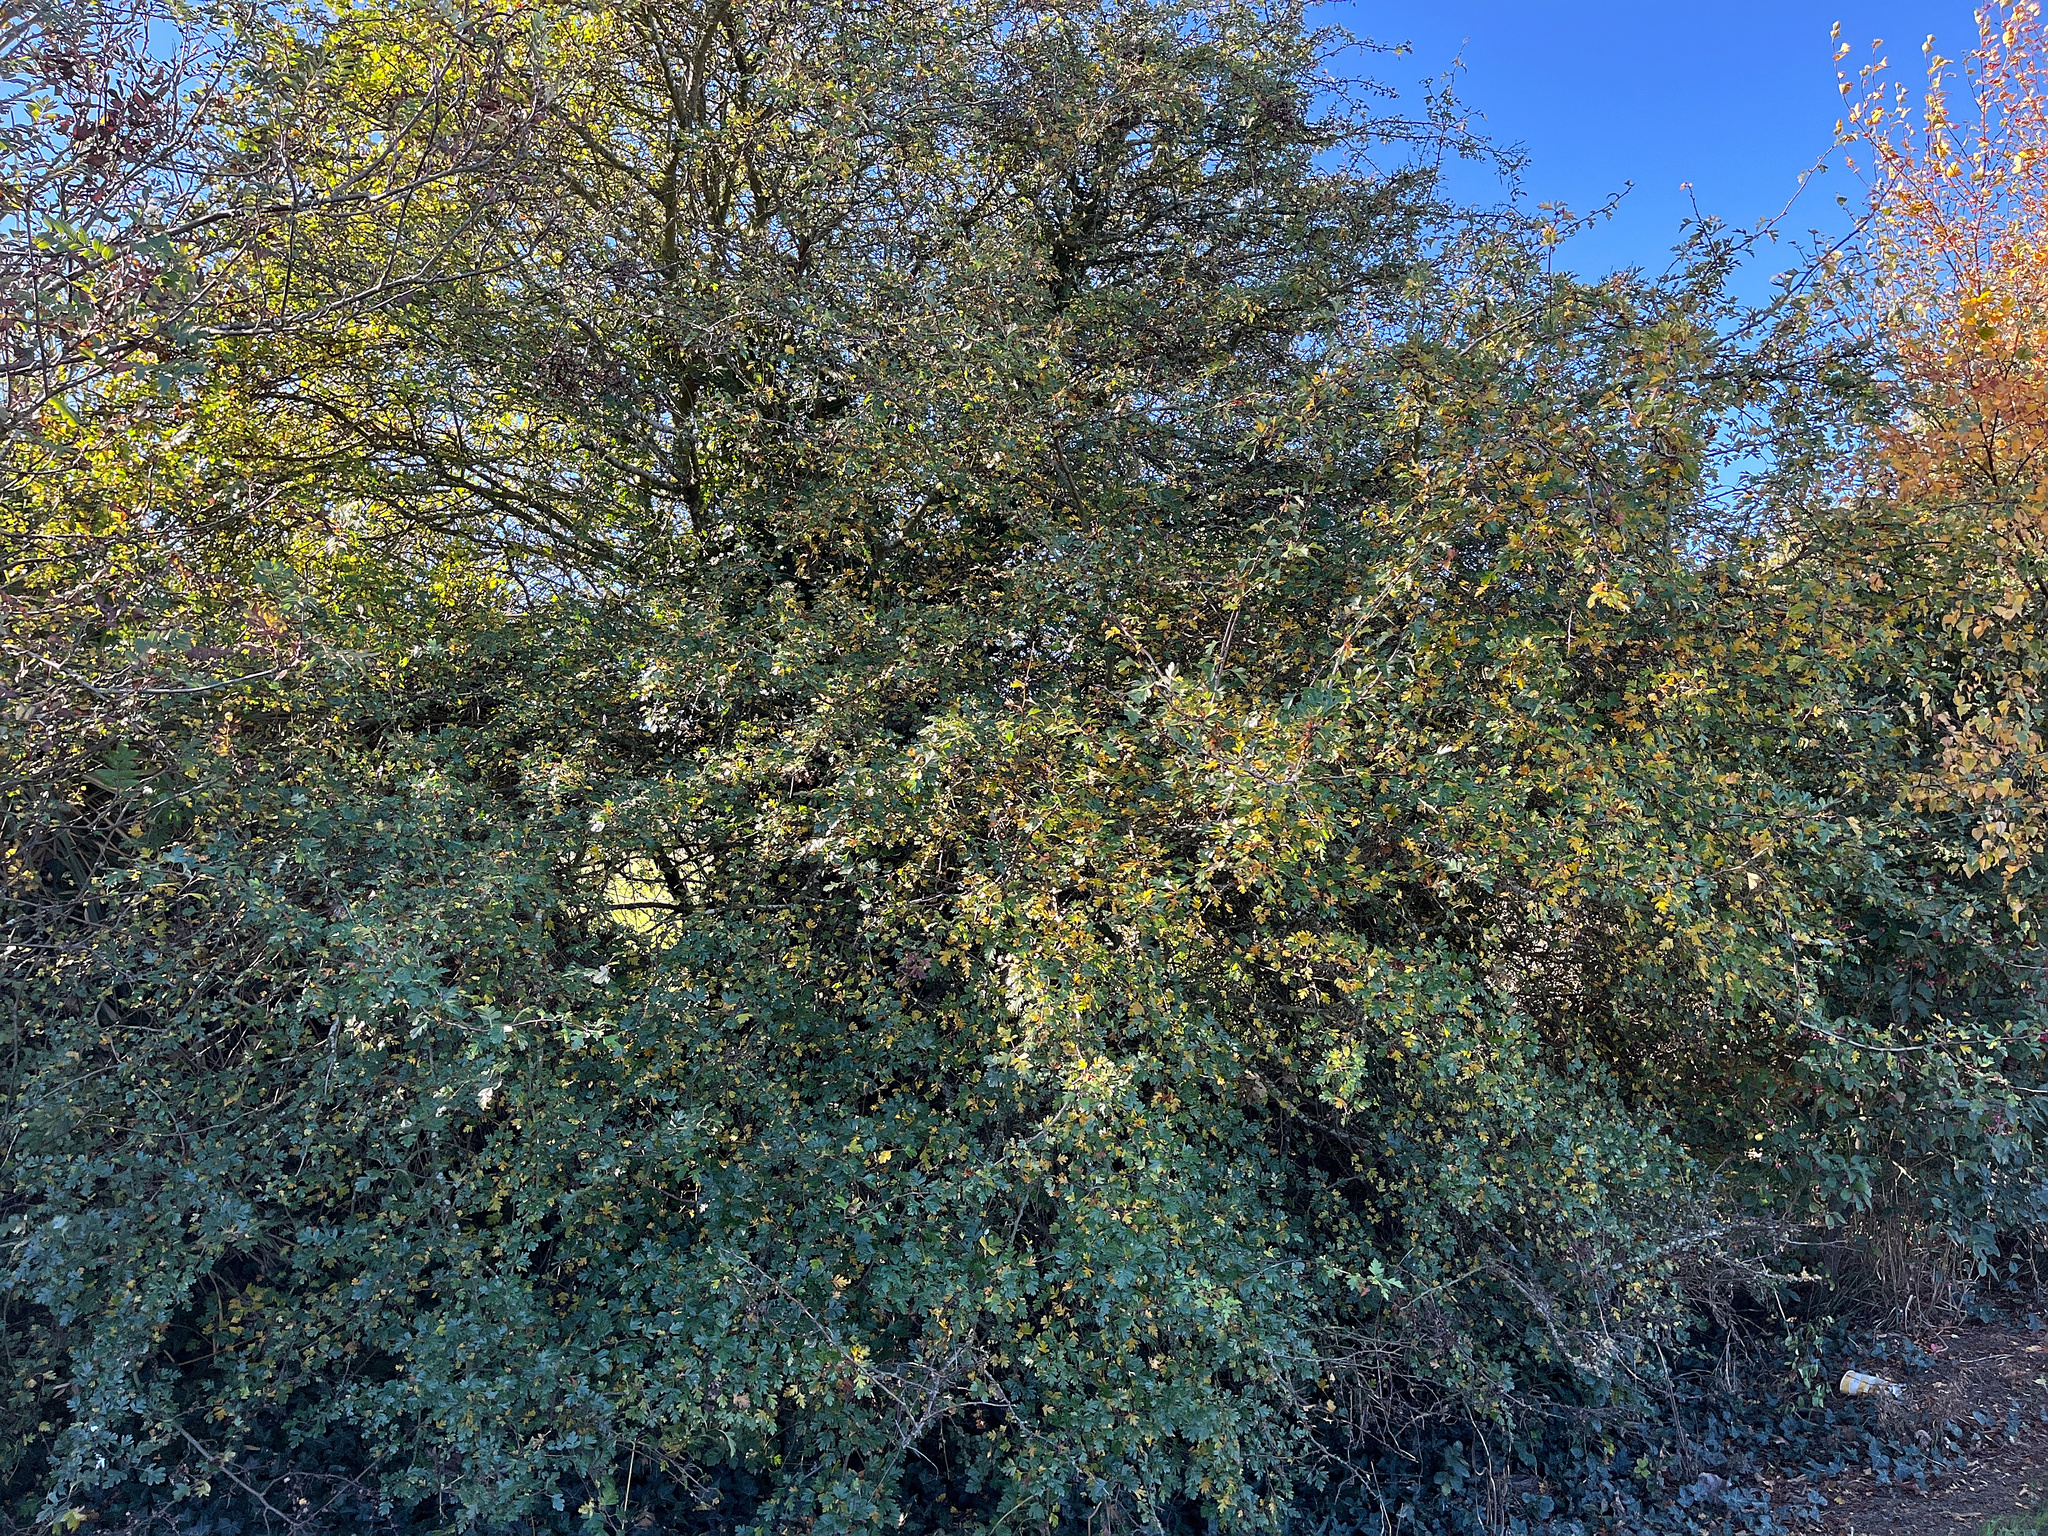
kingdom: Plantae
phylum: Tracheophyta
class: Magnoliopsida
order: Rosales
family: Rosaceae
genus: Crataegus
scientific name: Crataegus monogyna
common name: Hawthorn
